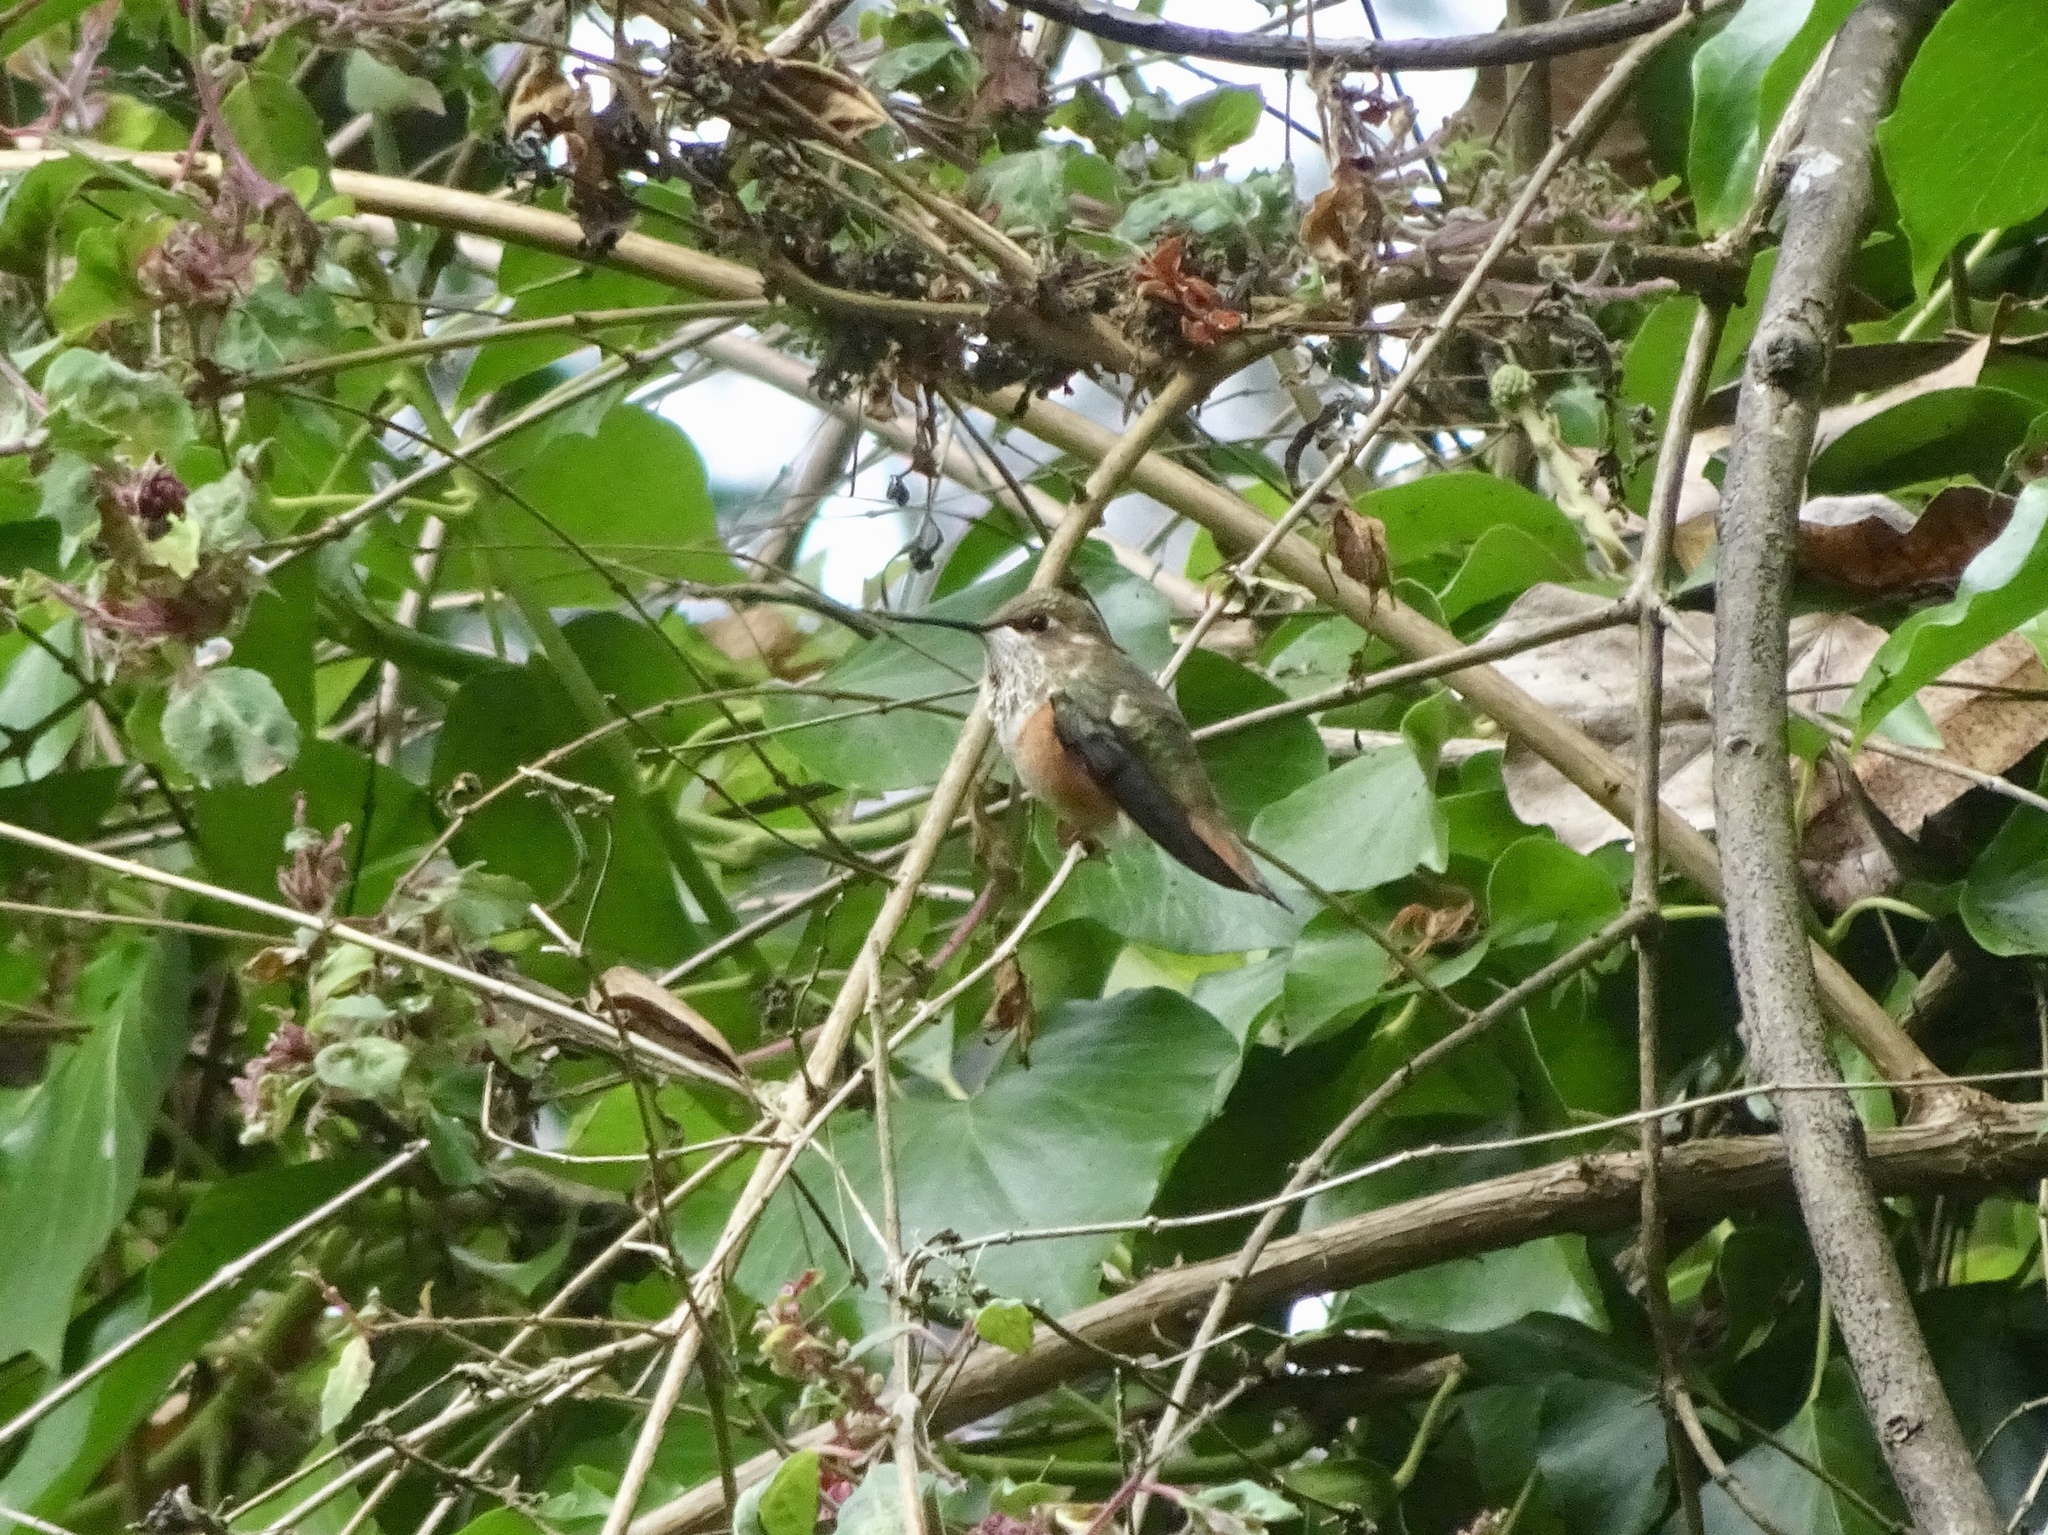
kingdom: Animalia
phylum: Chordata
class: Aves
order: Apodiformes
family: Trochilidae
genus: Selasphorus
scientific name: Selasphorus
